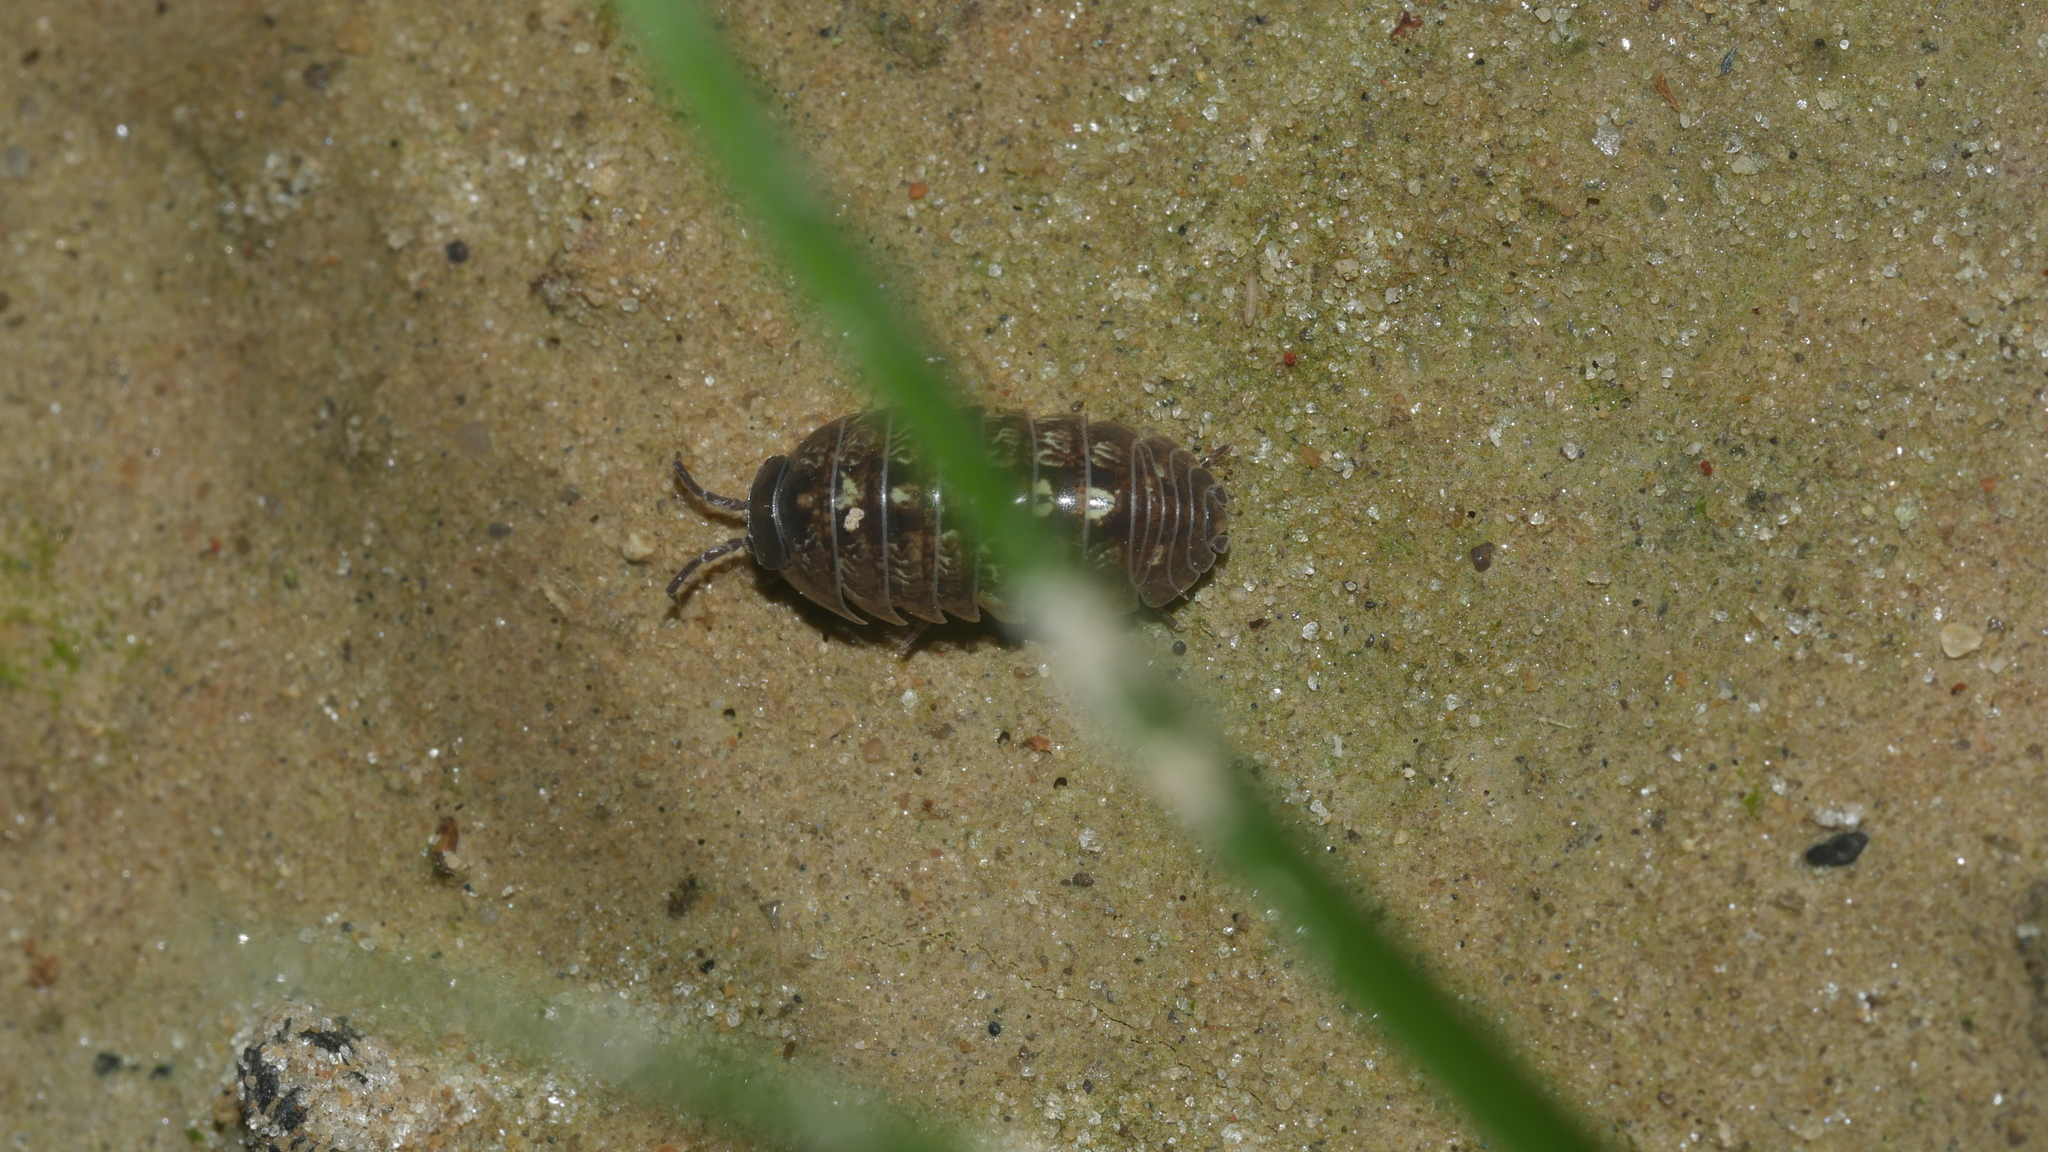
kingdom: Animalia
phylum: Arthropoda
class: Malacostraca
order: Isopoda
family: Armadillidiidae
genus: Armadillidium
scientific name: Armadillidium vulgare
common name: Common pill woodlouse
